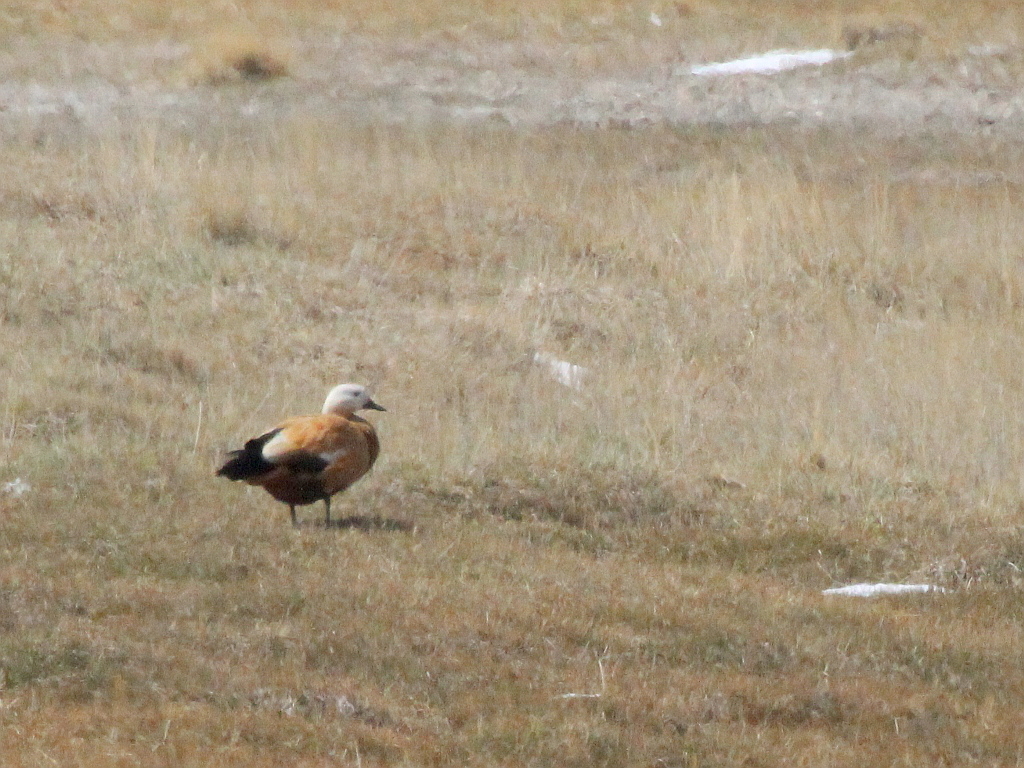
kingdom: Animalia
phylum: Chordata
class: Aves
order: Anseriformes
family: Anatidae
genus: Tadorna
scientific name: Tadorna ferruginea
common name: Ruddy shelduck
